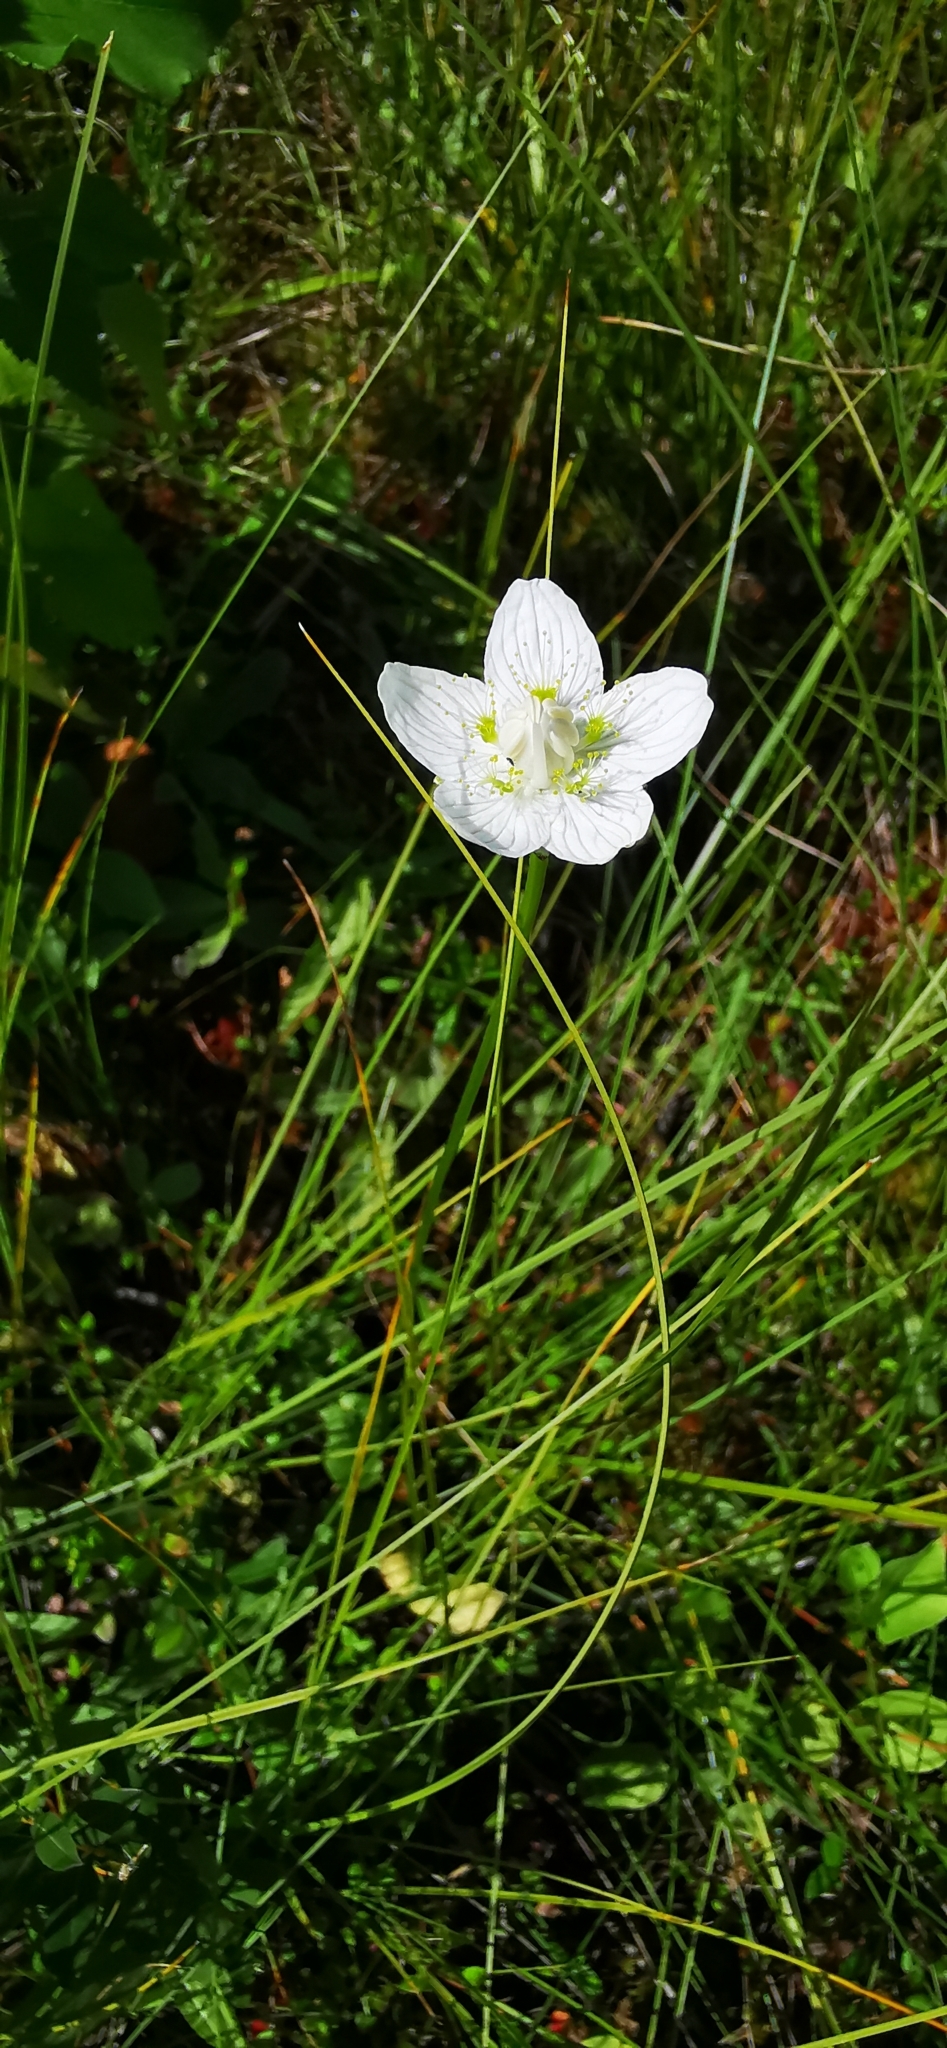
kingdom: Plantae
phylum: Tracheophyta
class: Magnoliopsida
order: Celastrales
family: Parnassiaceae
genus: Parnassia
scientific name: Parnassia palustris
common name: Grass-of-parnassus
